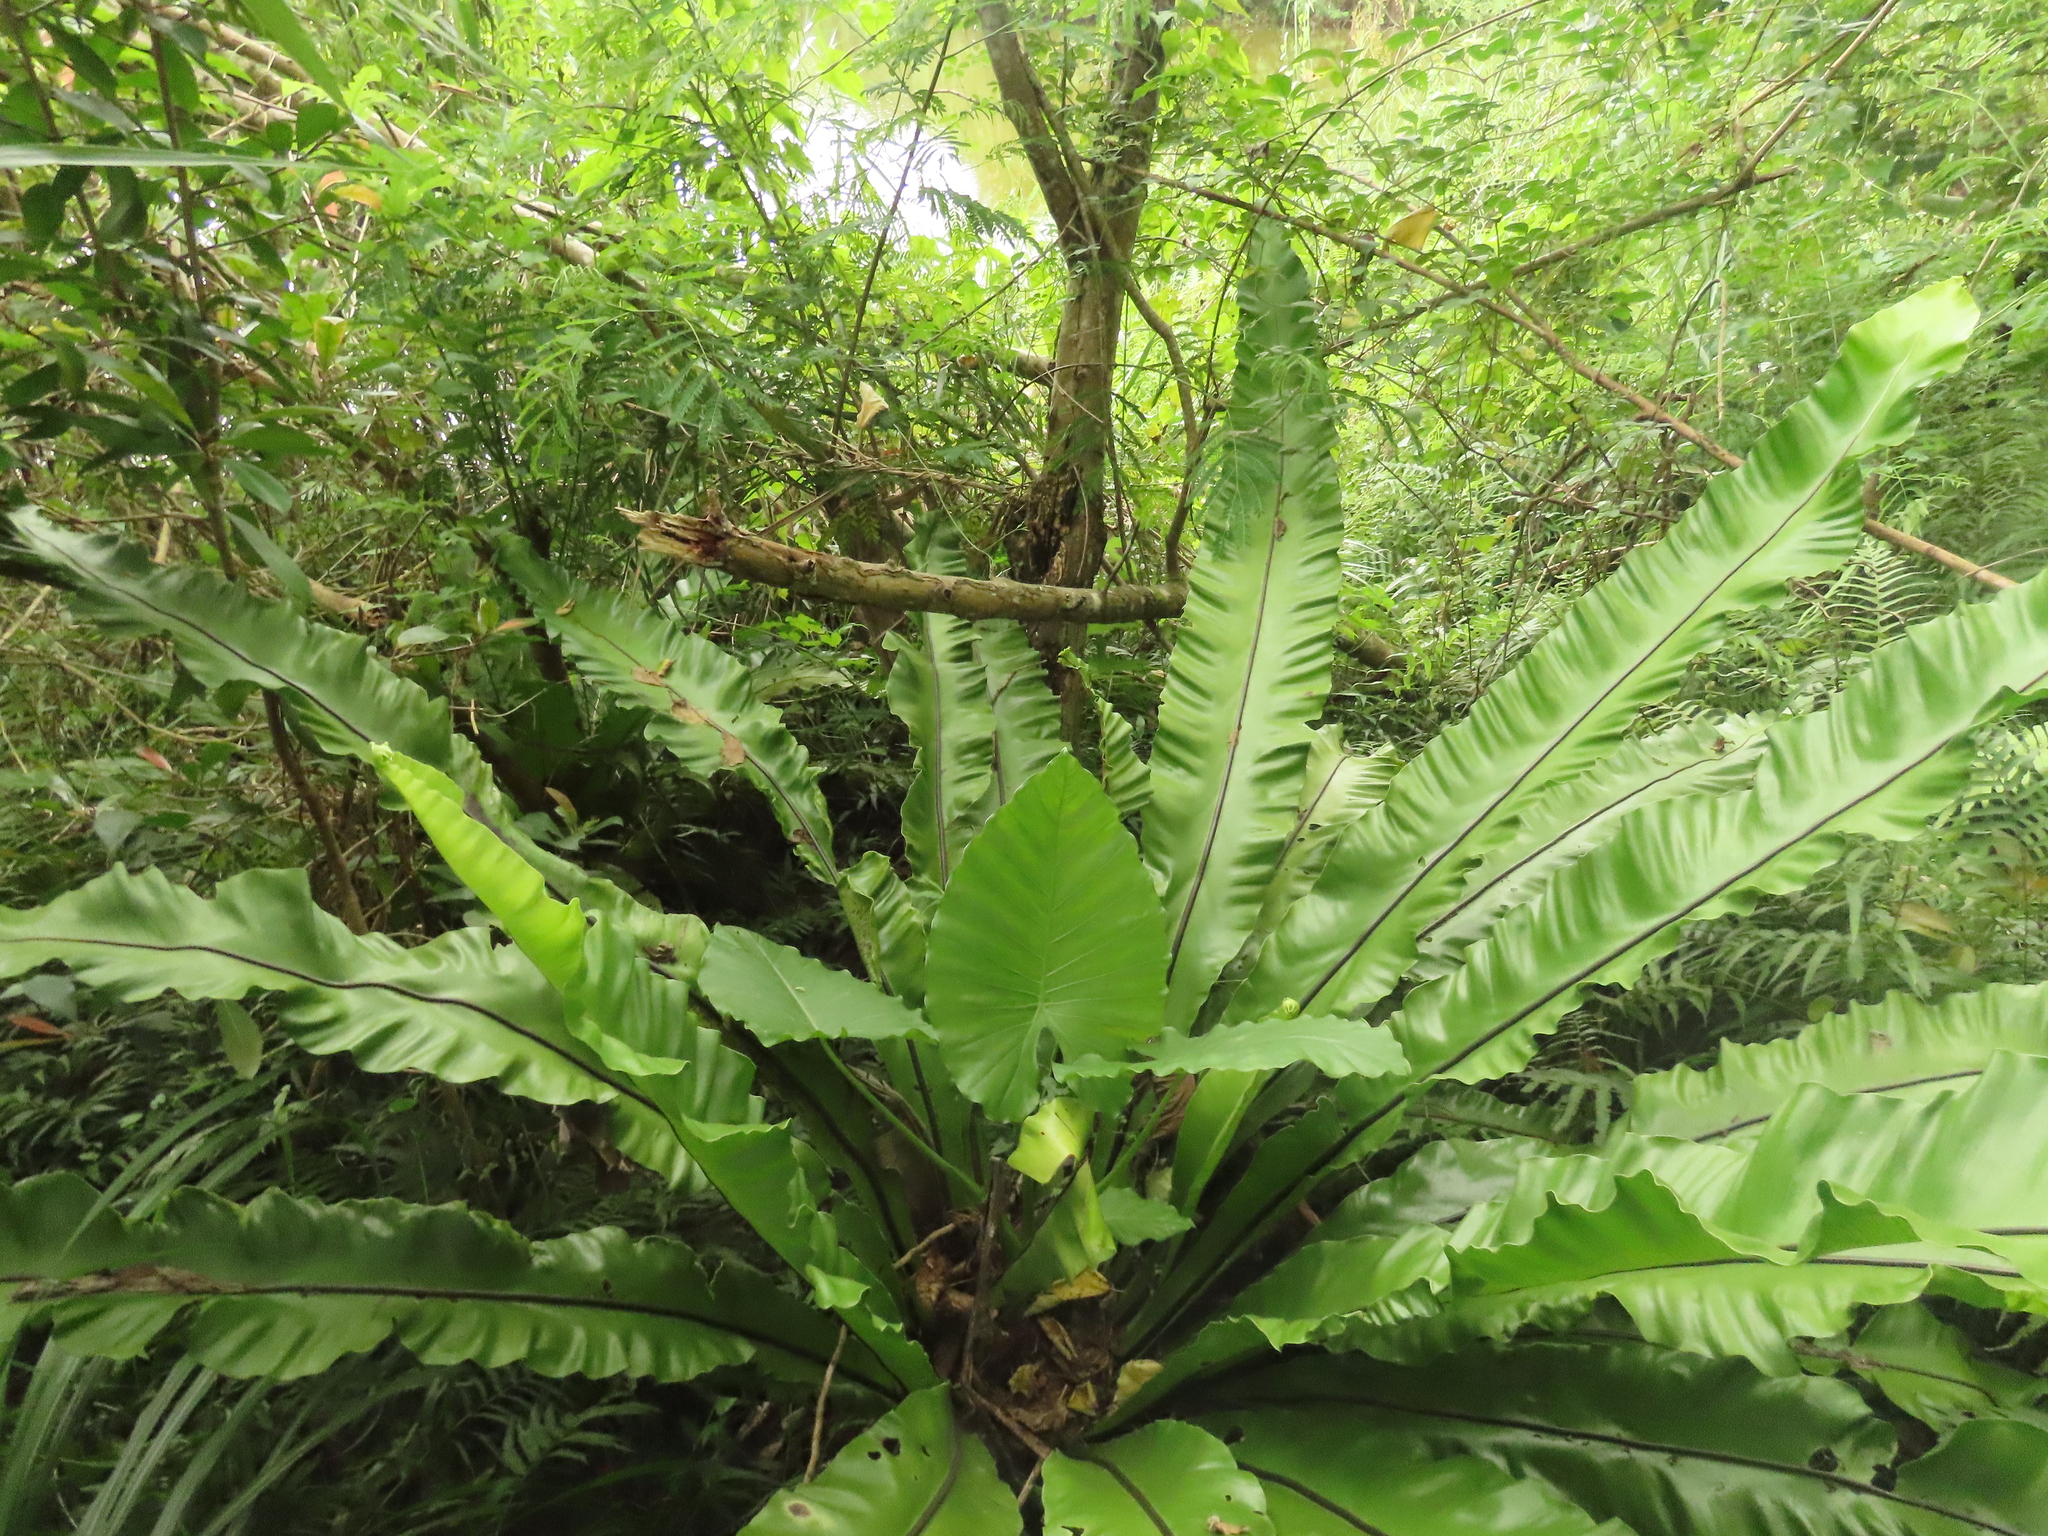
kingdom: Plantae
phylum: Tracheophyta
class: Polypodiopsida
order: Polypodiales
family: Aspleniaceae
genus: Asplenium
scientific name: Asplenium setoi
